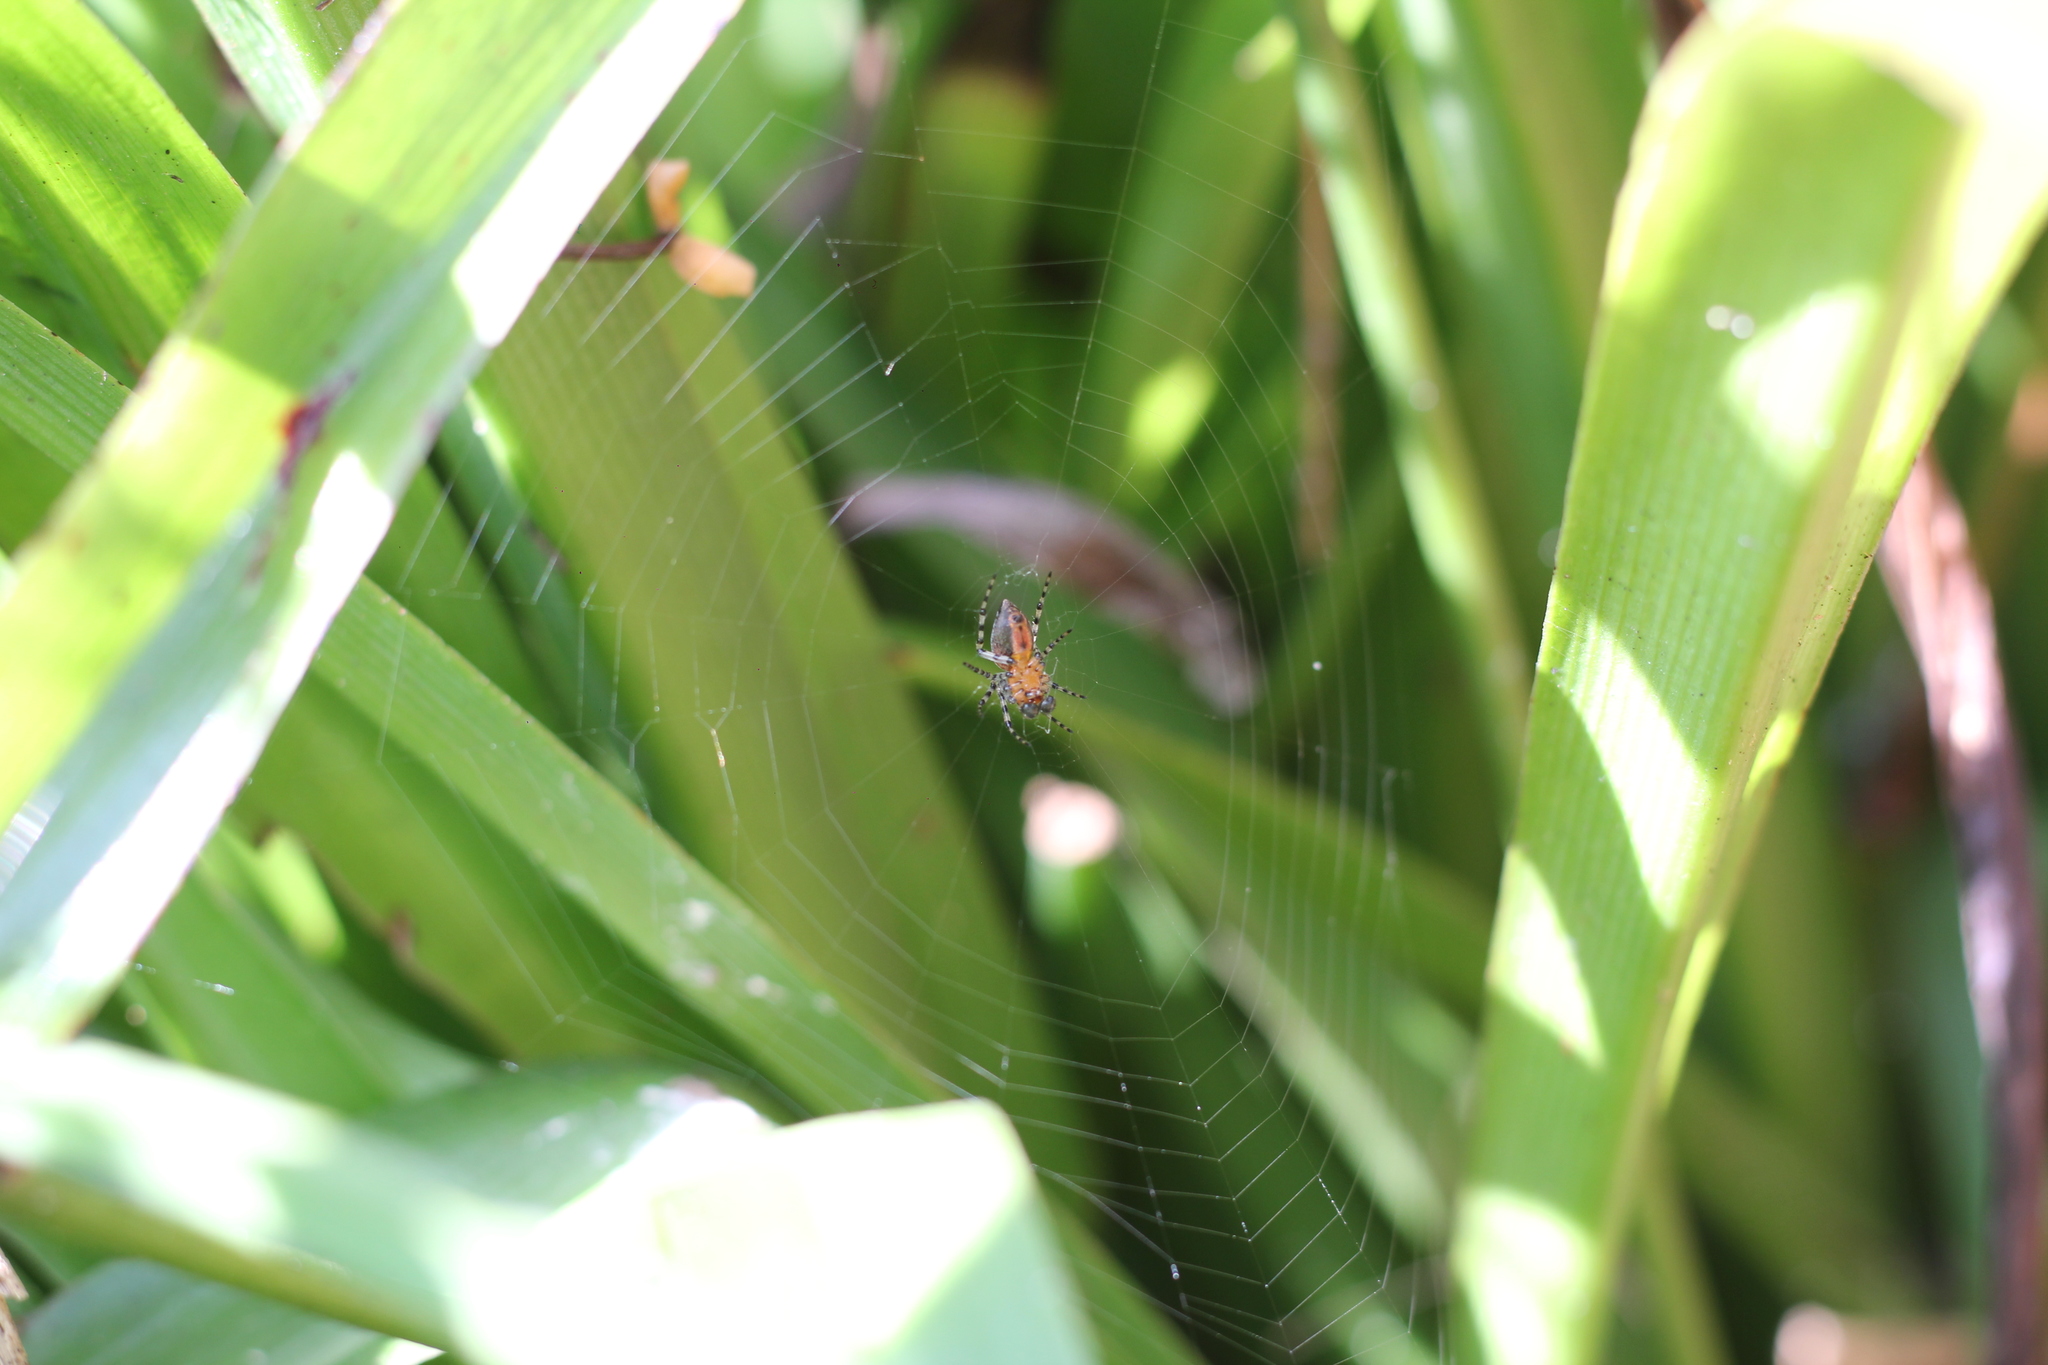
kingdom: Animalia
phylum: Arthropoda
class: Arachnida
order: Araneae
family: Araneidae
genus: Alpaida
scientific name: Alpaida gallardoi
